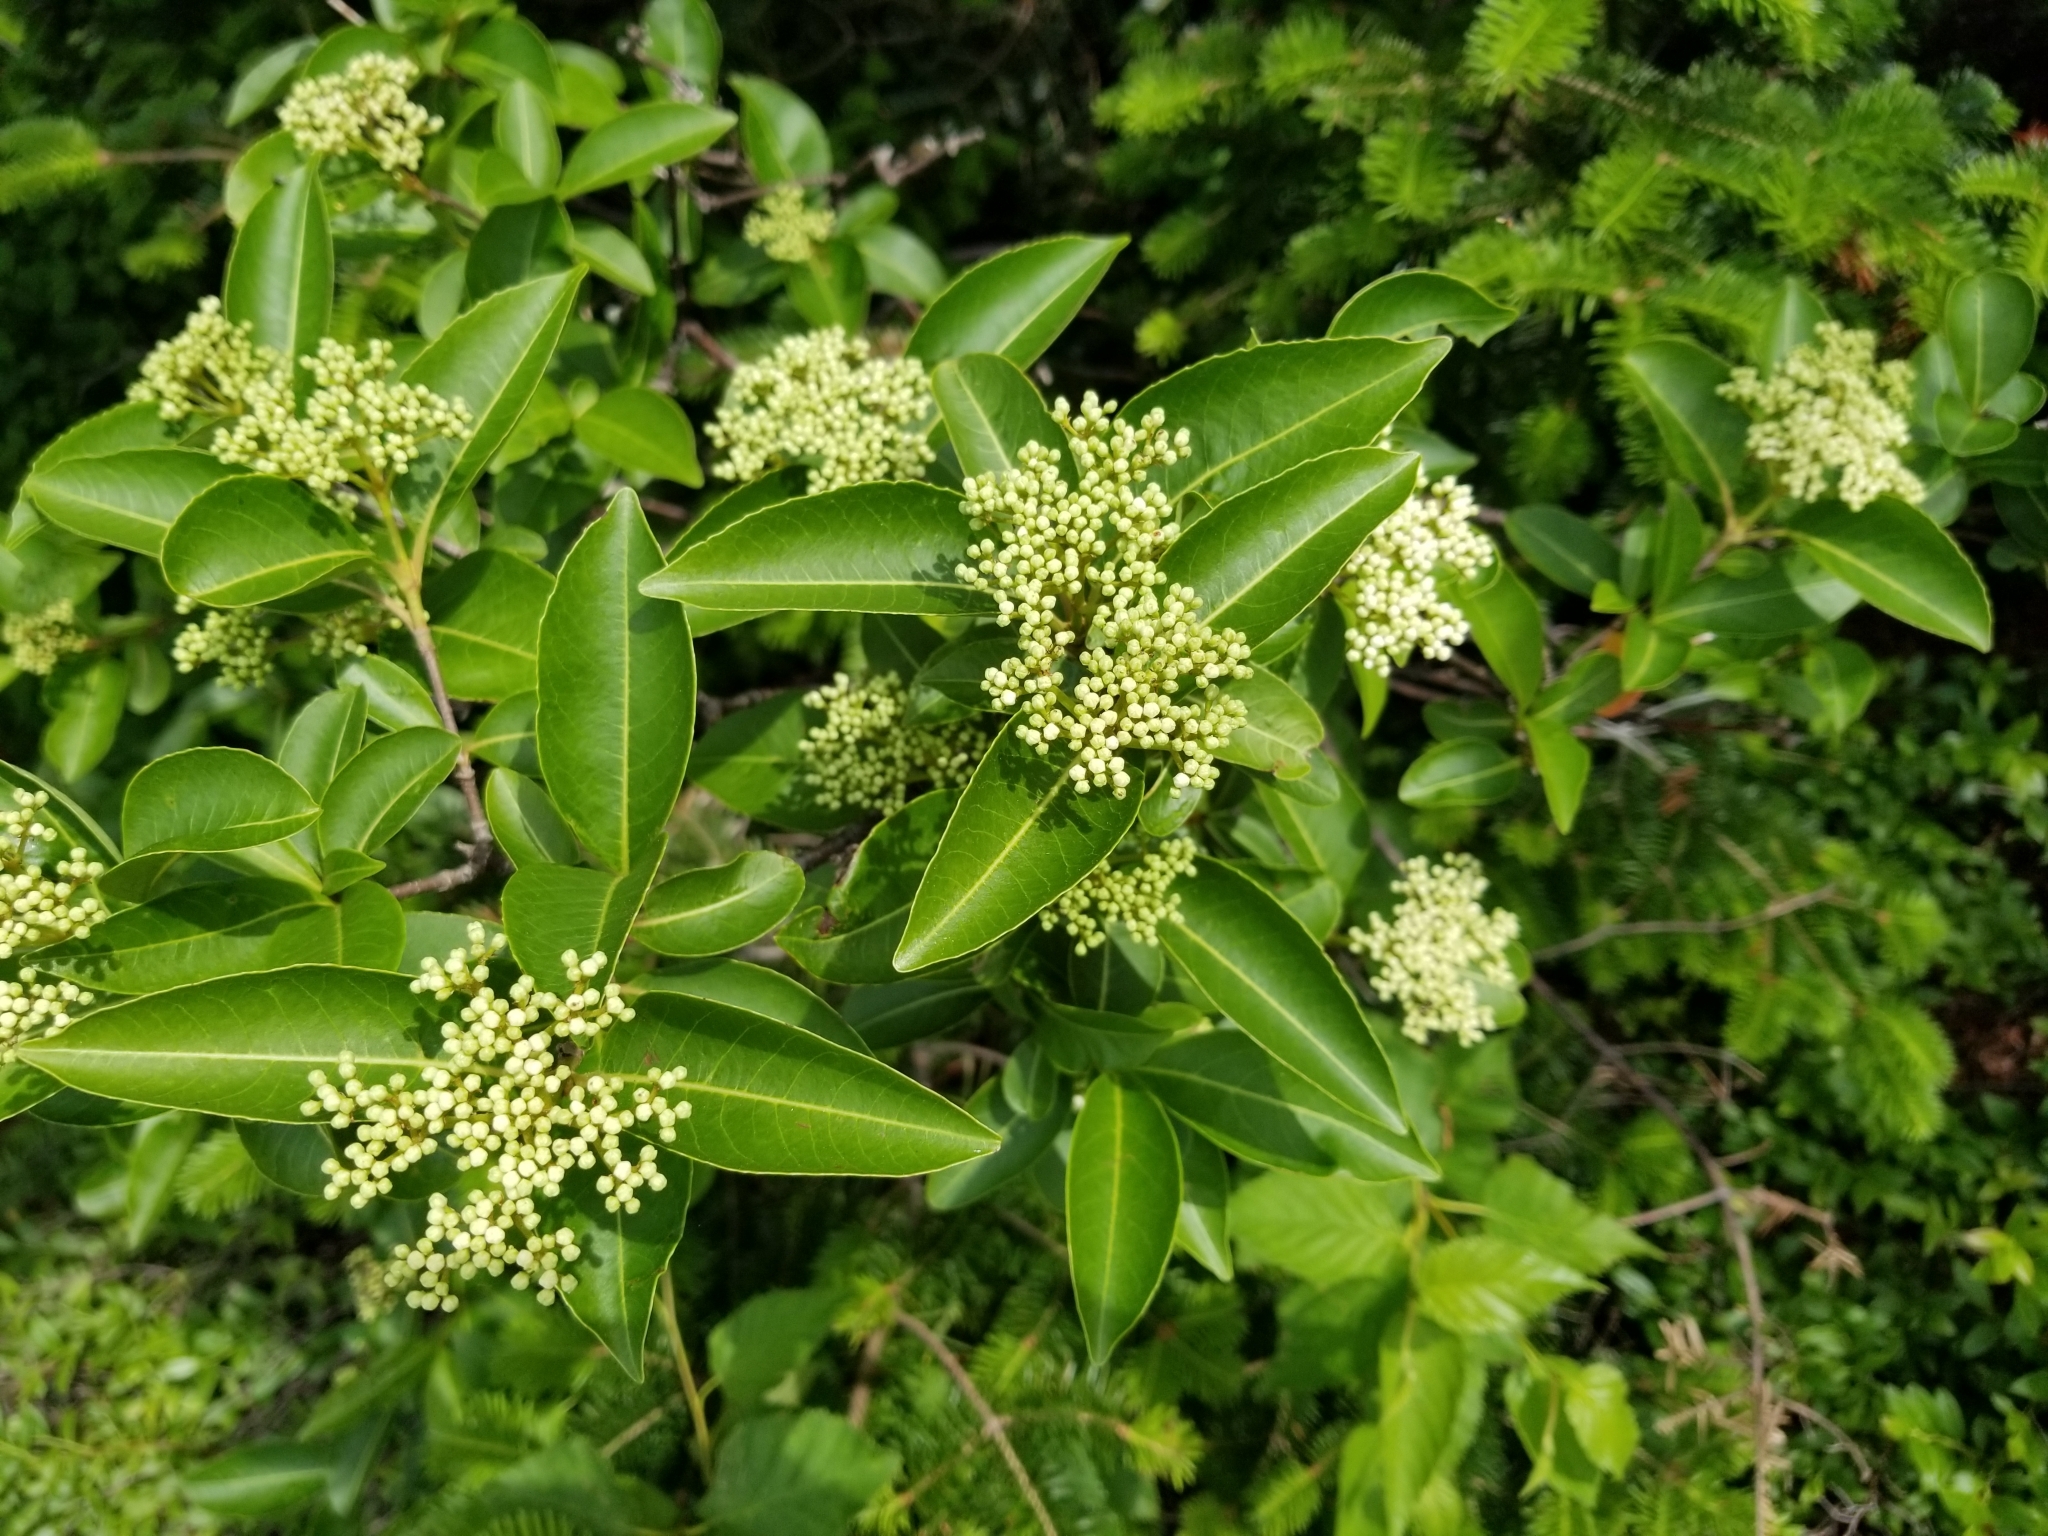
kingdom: Plantae
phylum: Tracheophyta
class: Magnoliopsida
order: Dipsacales
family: Viburnaceae
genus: Viburnum
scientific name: Viburnum cassinoides
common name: Swamp haw
